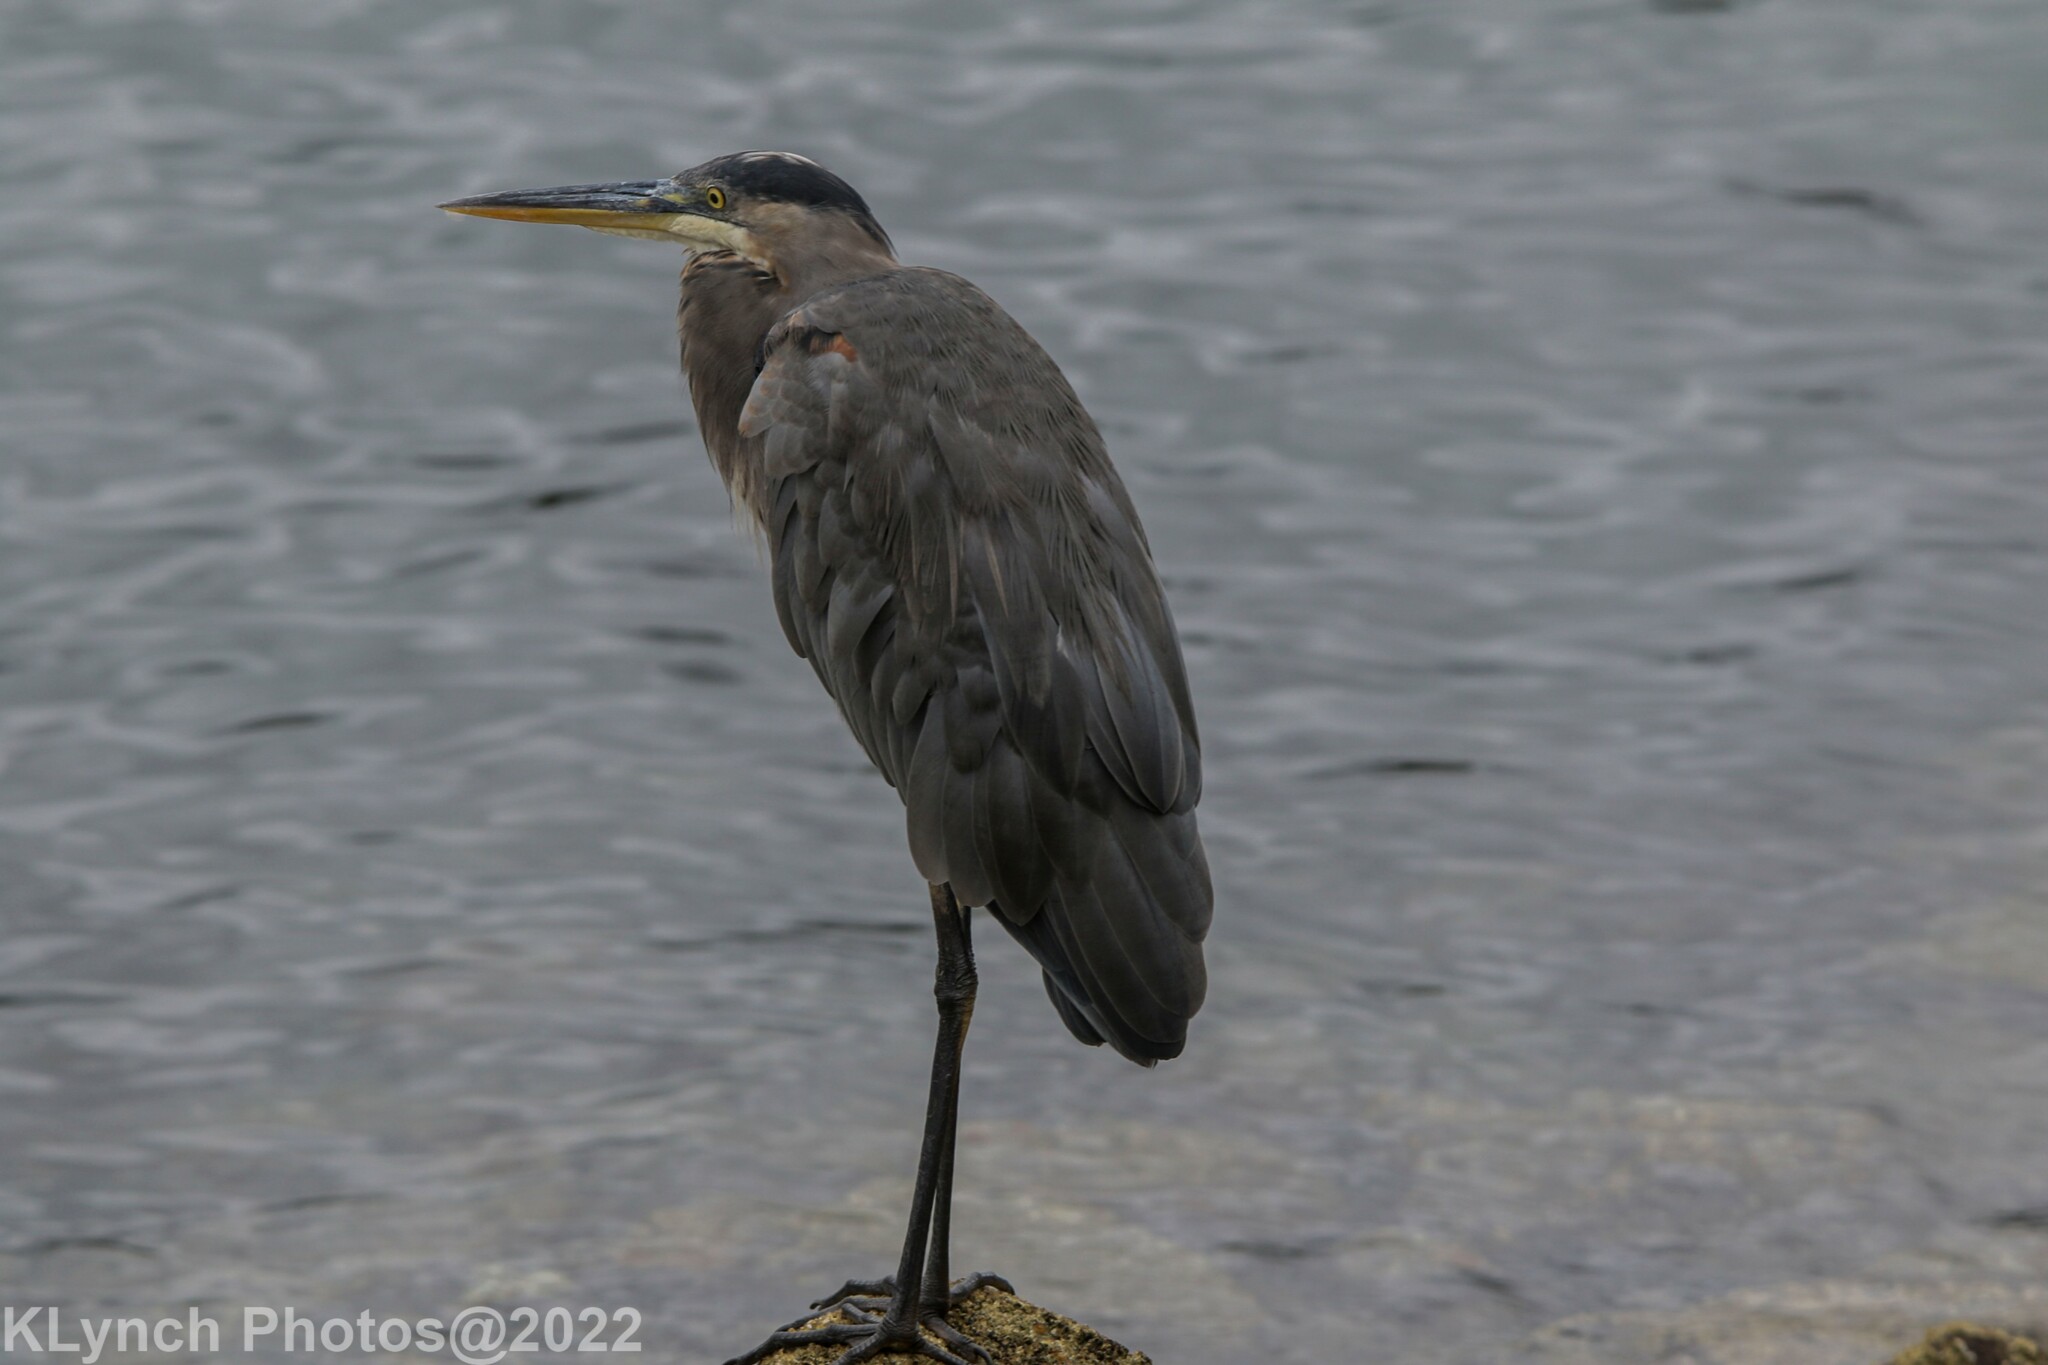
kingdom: Animalia
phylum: Chordata
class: Aves
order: Pelecaniformes
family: Ardeidae
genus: Ardea
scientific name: Ardea herodias
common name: Great blue heron
